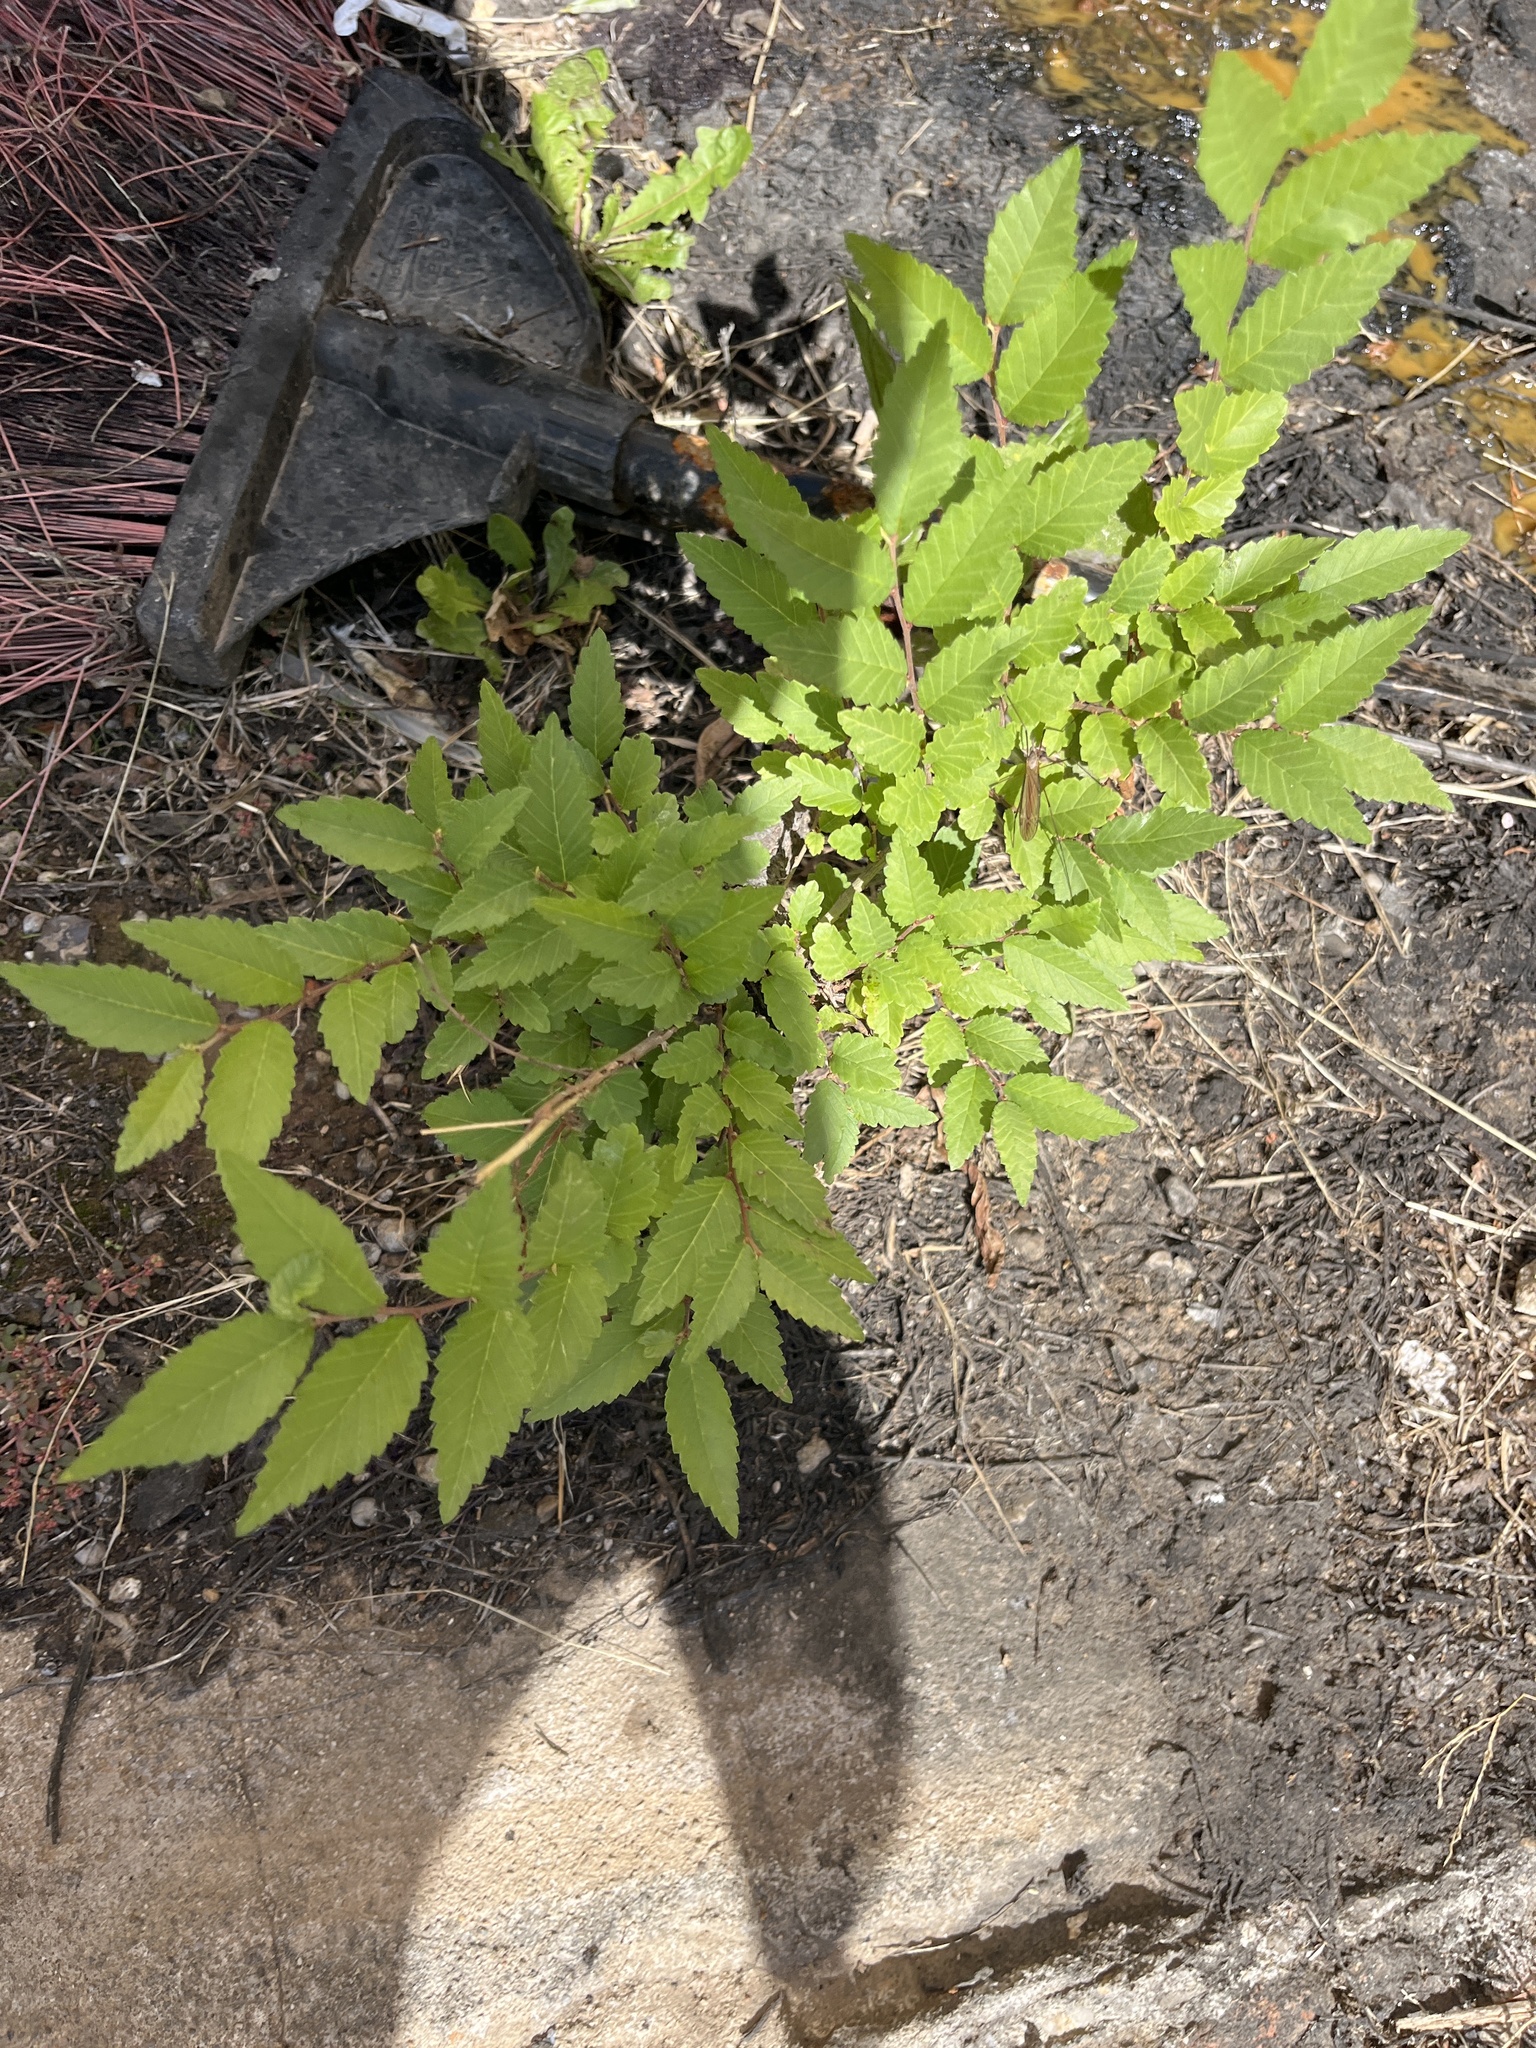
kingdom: Plantae
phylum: Tracheophyta
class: Magnoliopsida
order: Rosales
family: Ulmaceae
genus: Ulmus
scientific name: Ulmus pumila
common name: Siberian elm
